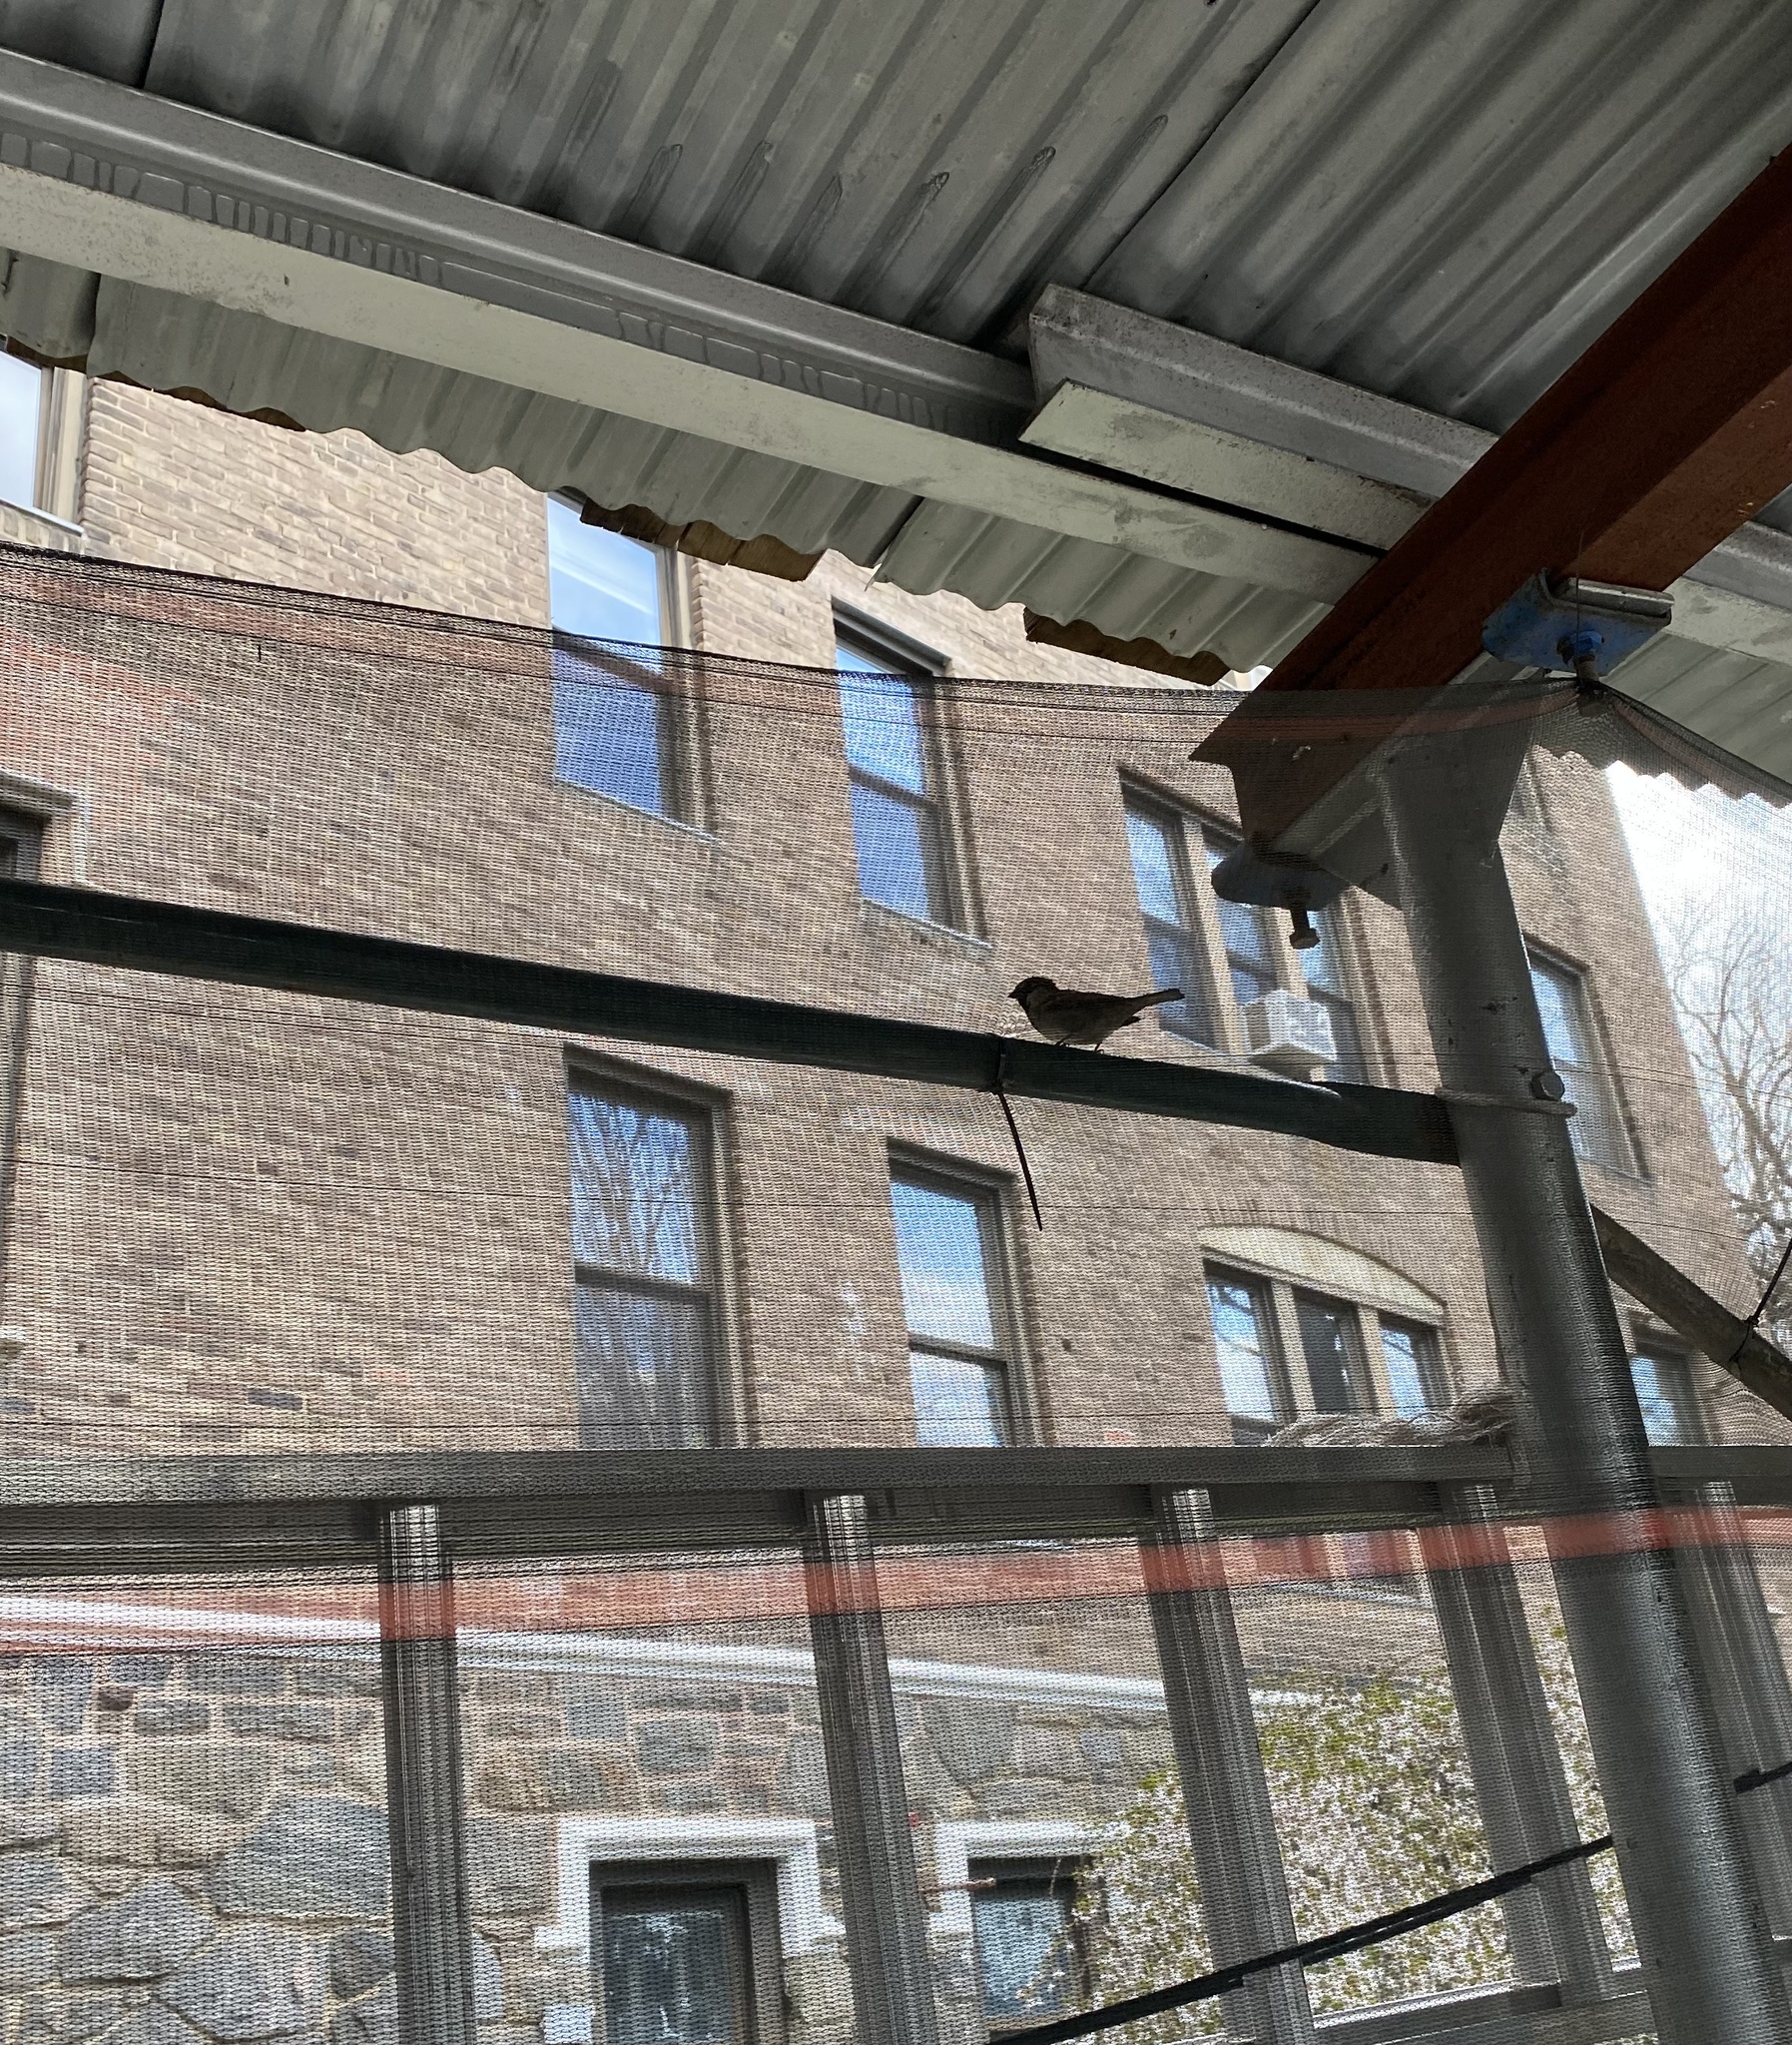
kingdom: Animalia
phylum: Chordata
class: Aves
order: Passeriformes
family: Passeridae
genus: Passer
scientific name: Passer domesticus
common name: House sparrow
